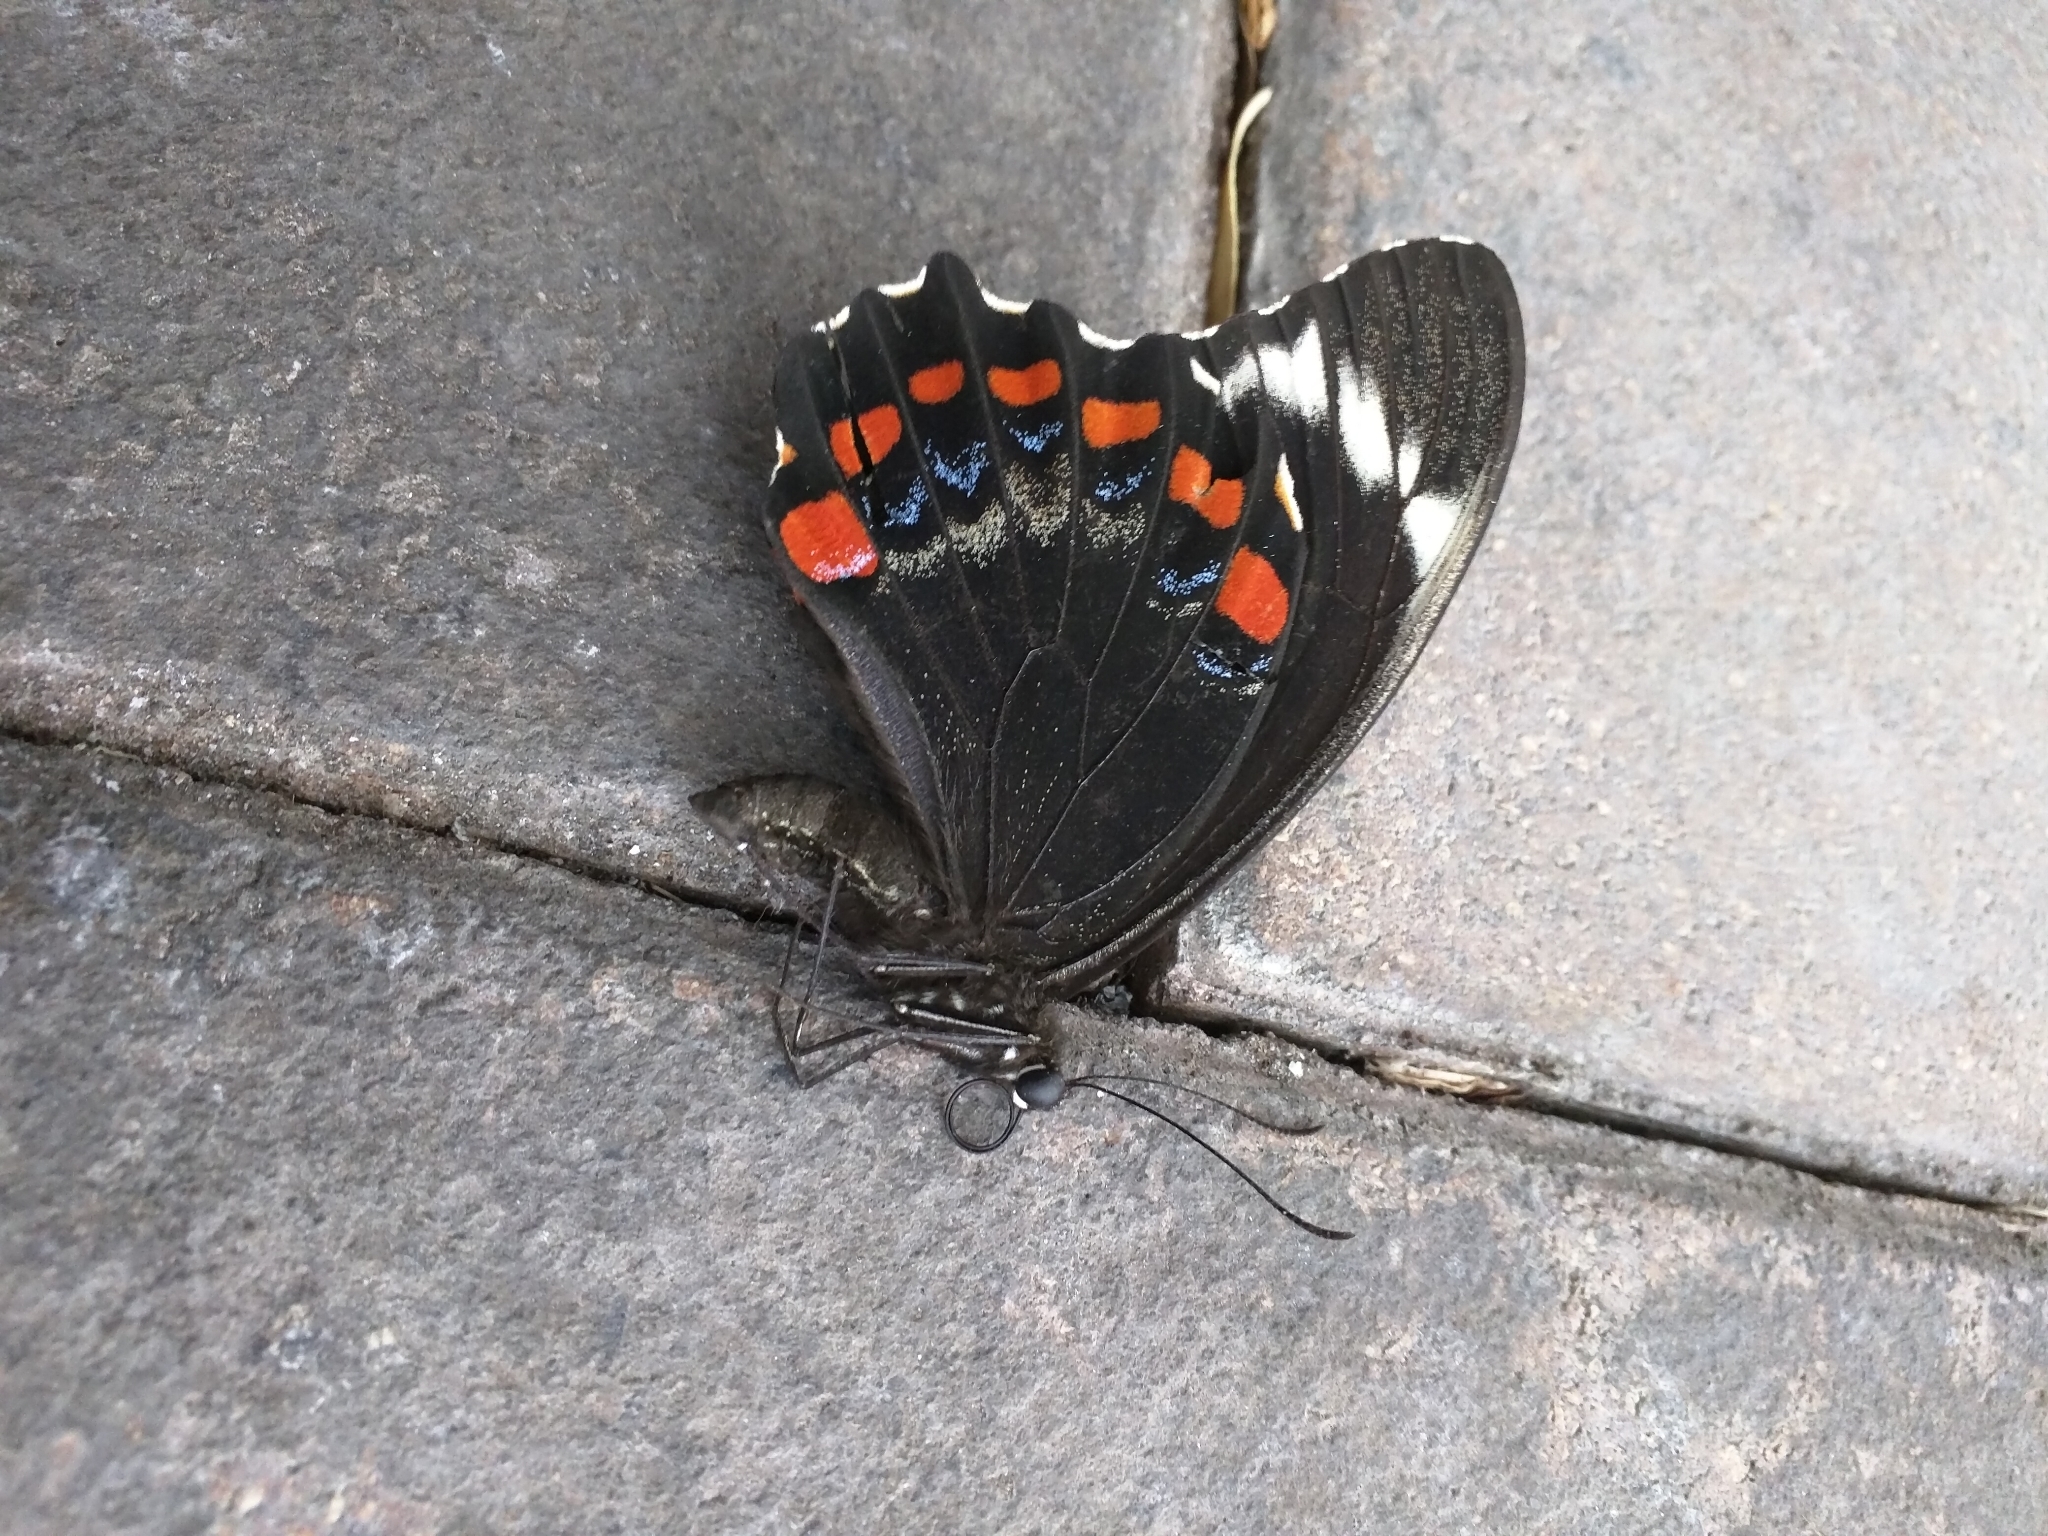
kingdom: Animalia
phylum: Arthropoda
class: Insecta
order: Lepidoptera
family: Papilionidae
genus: Papilio
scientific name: Papilio aegeus
